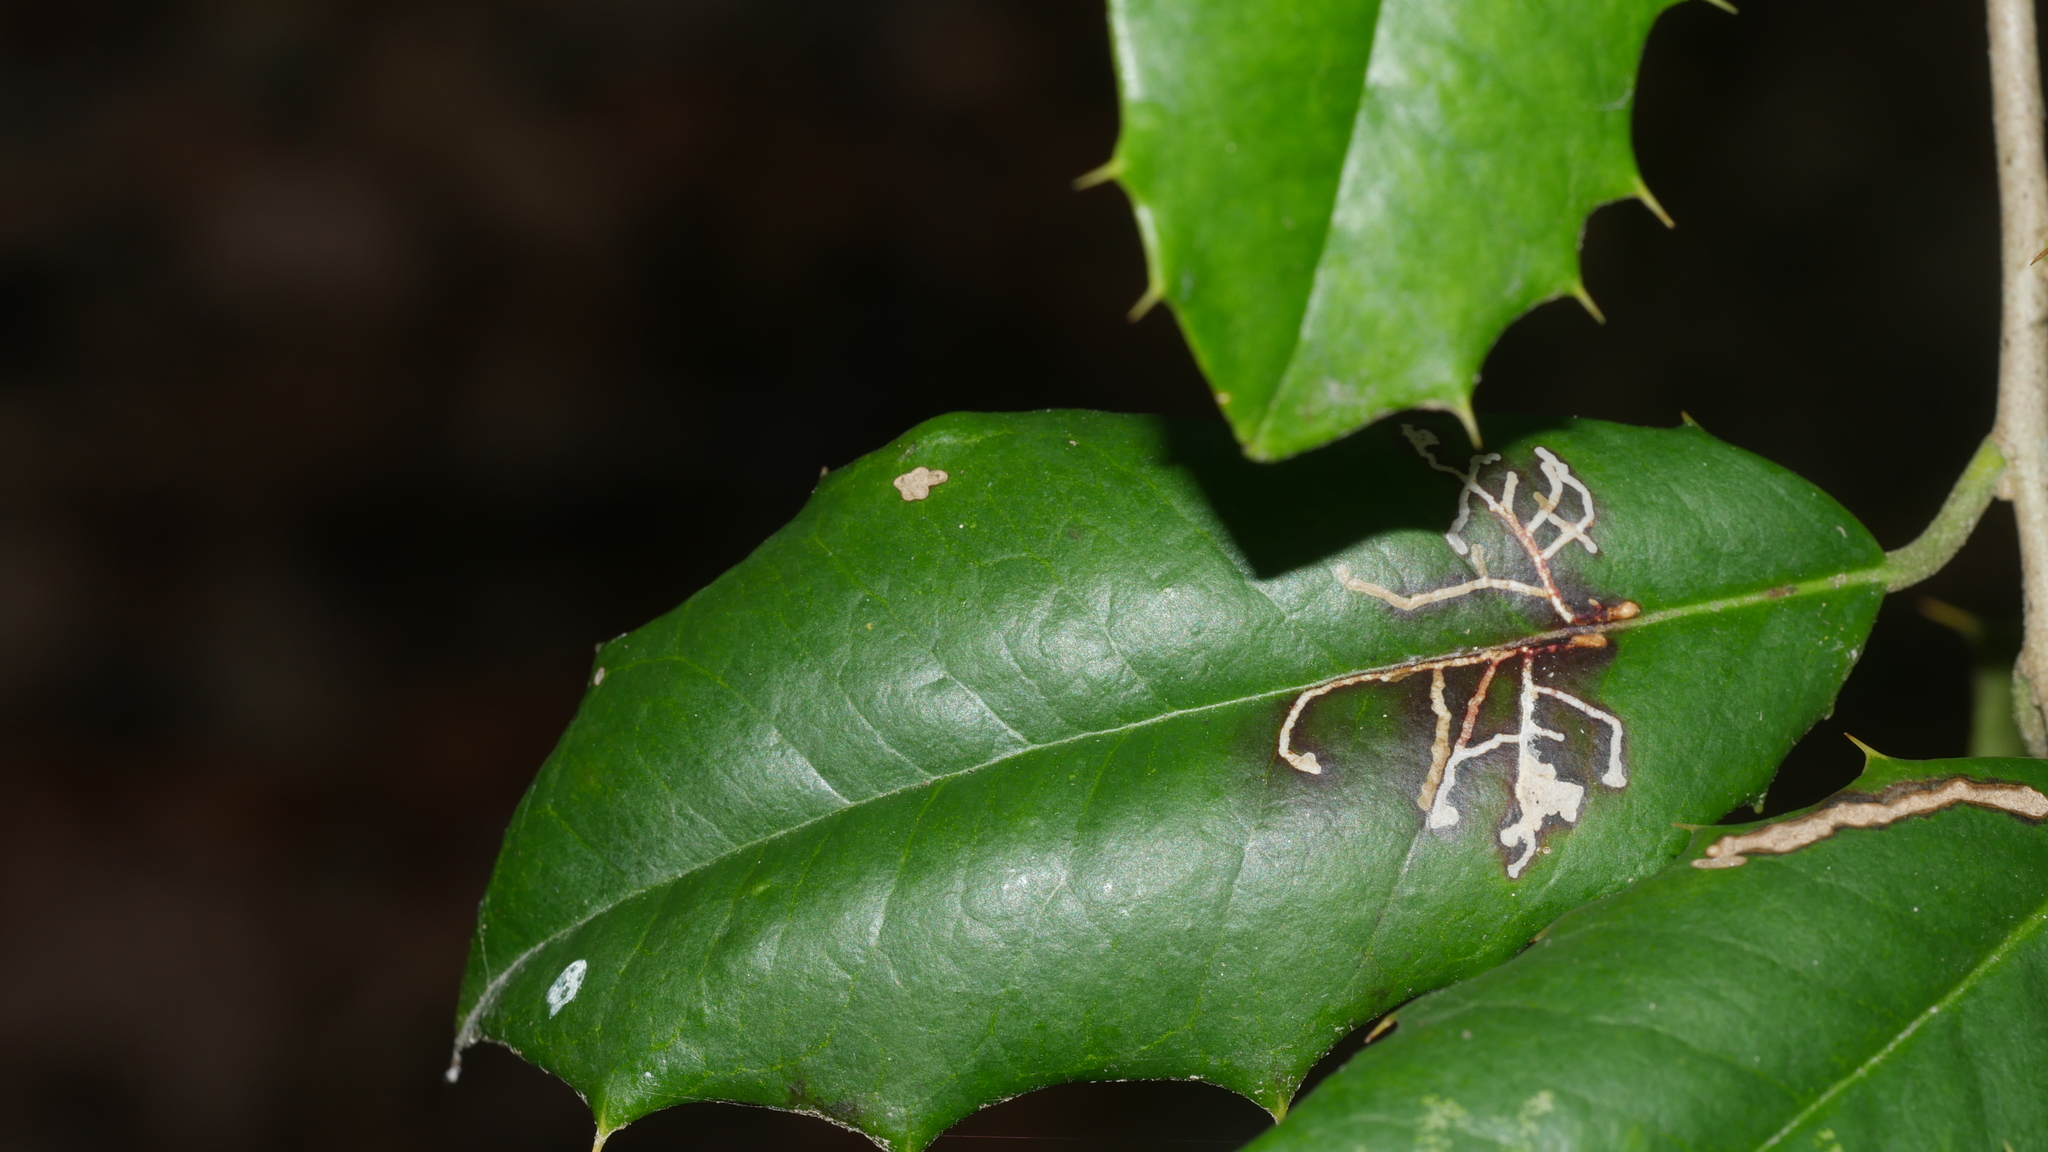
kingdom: Animalia
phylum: Arthropoda
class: Insecta
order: Lepidoptera
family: Tortricidae
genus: Rhopobota
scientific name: Rhopobota
